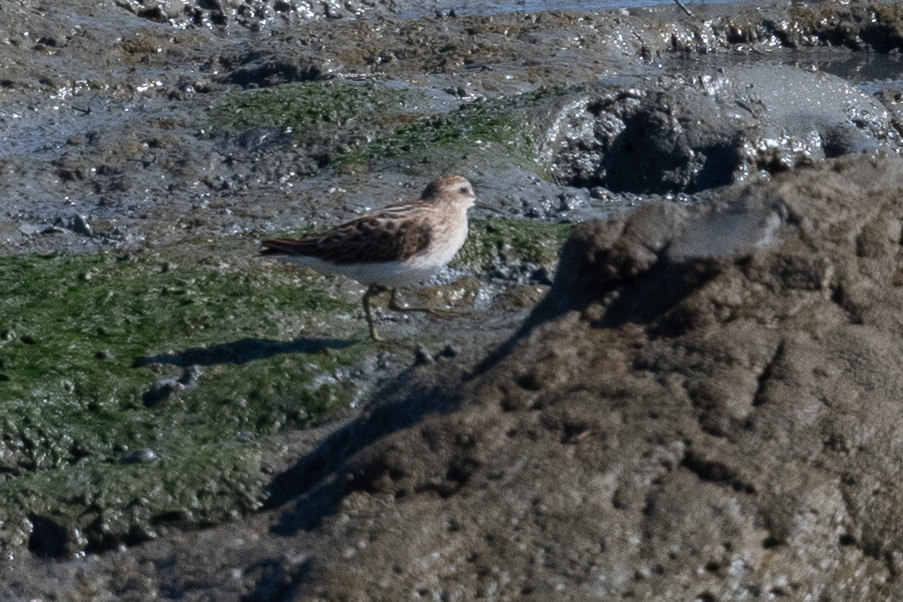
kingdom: Animalia
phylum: Chordata
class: Aves
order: Charadriiformes
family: Scolopacidae
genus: Calidris
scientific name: Calidris minutilla
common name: Least sandpiper
